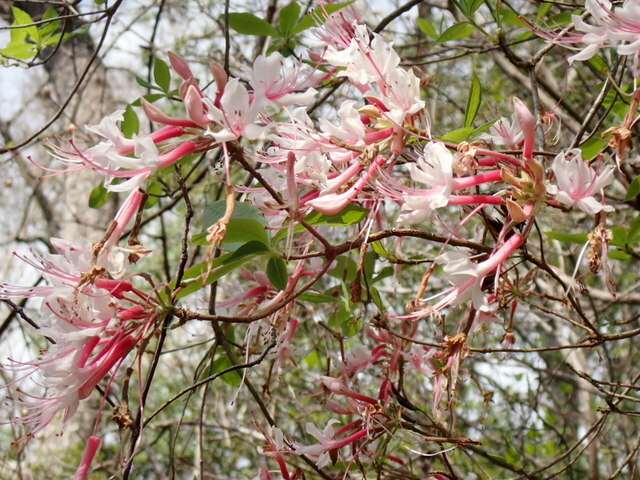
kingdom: Plantae
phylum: Tracheophyta
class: Magnoliopsida
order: Ericales
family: Ericaceae
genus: Rhododendron
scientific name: Rhododendron canescens
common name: Mountain azalea
